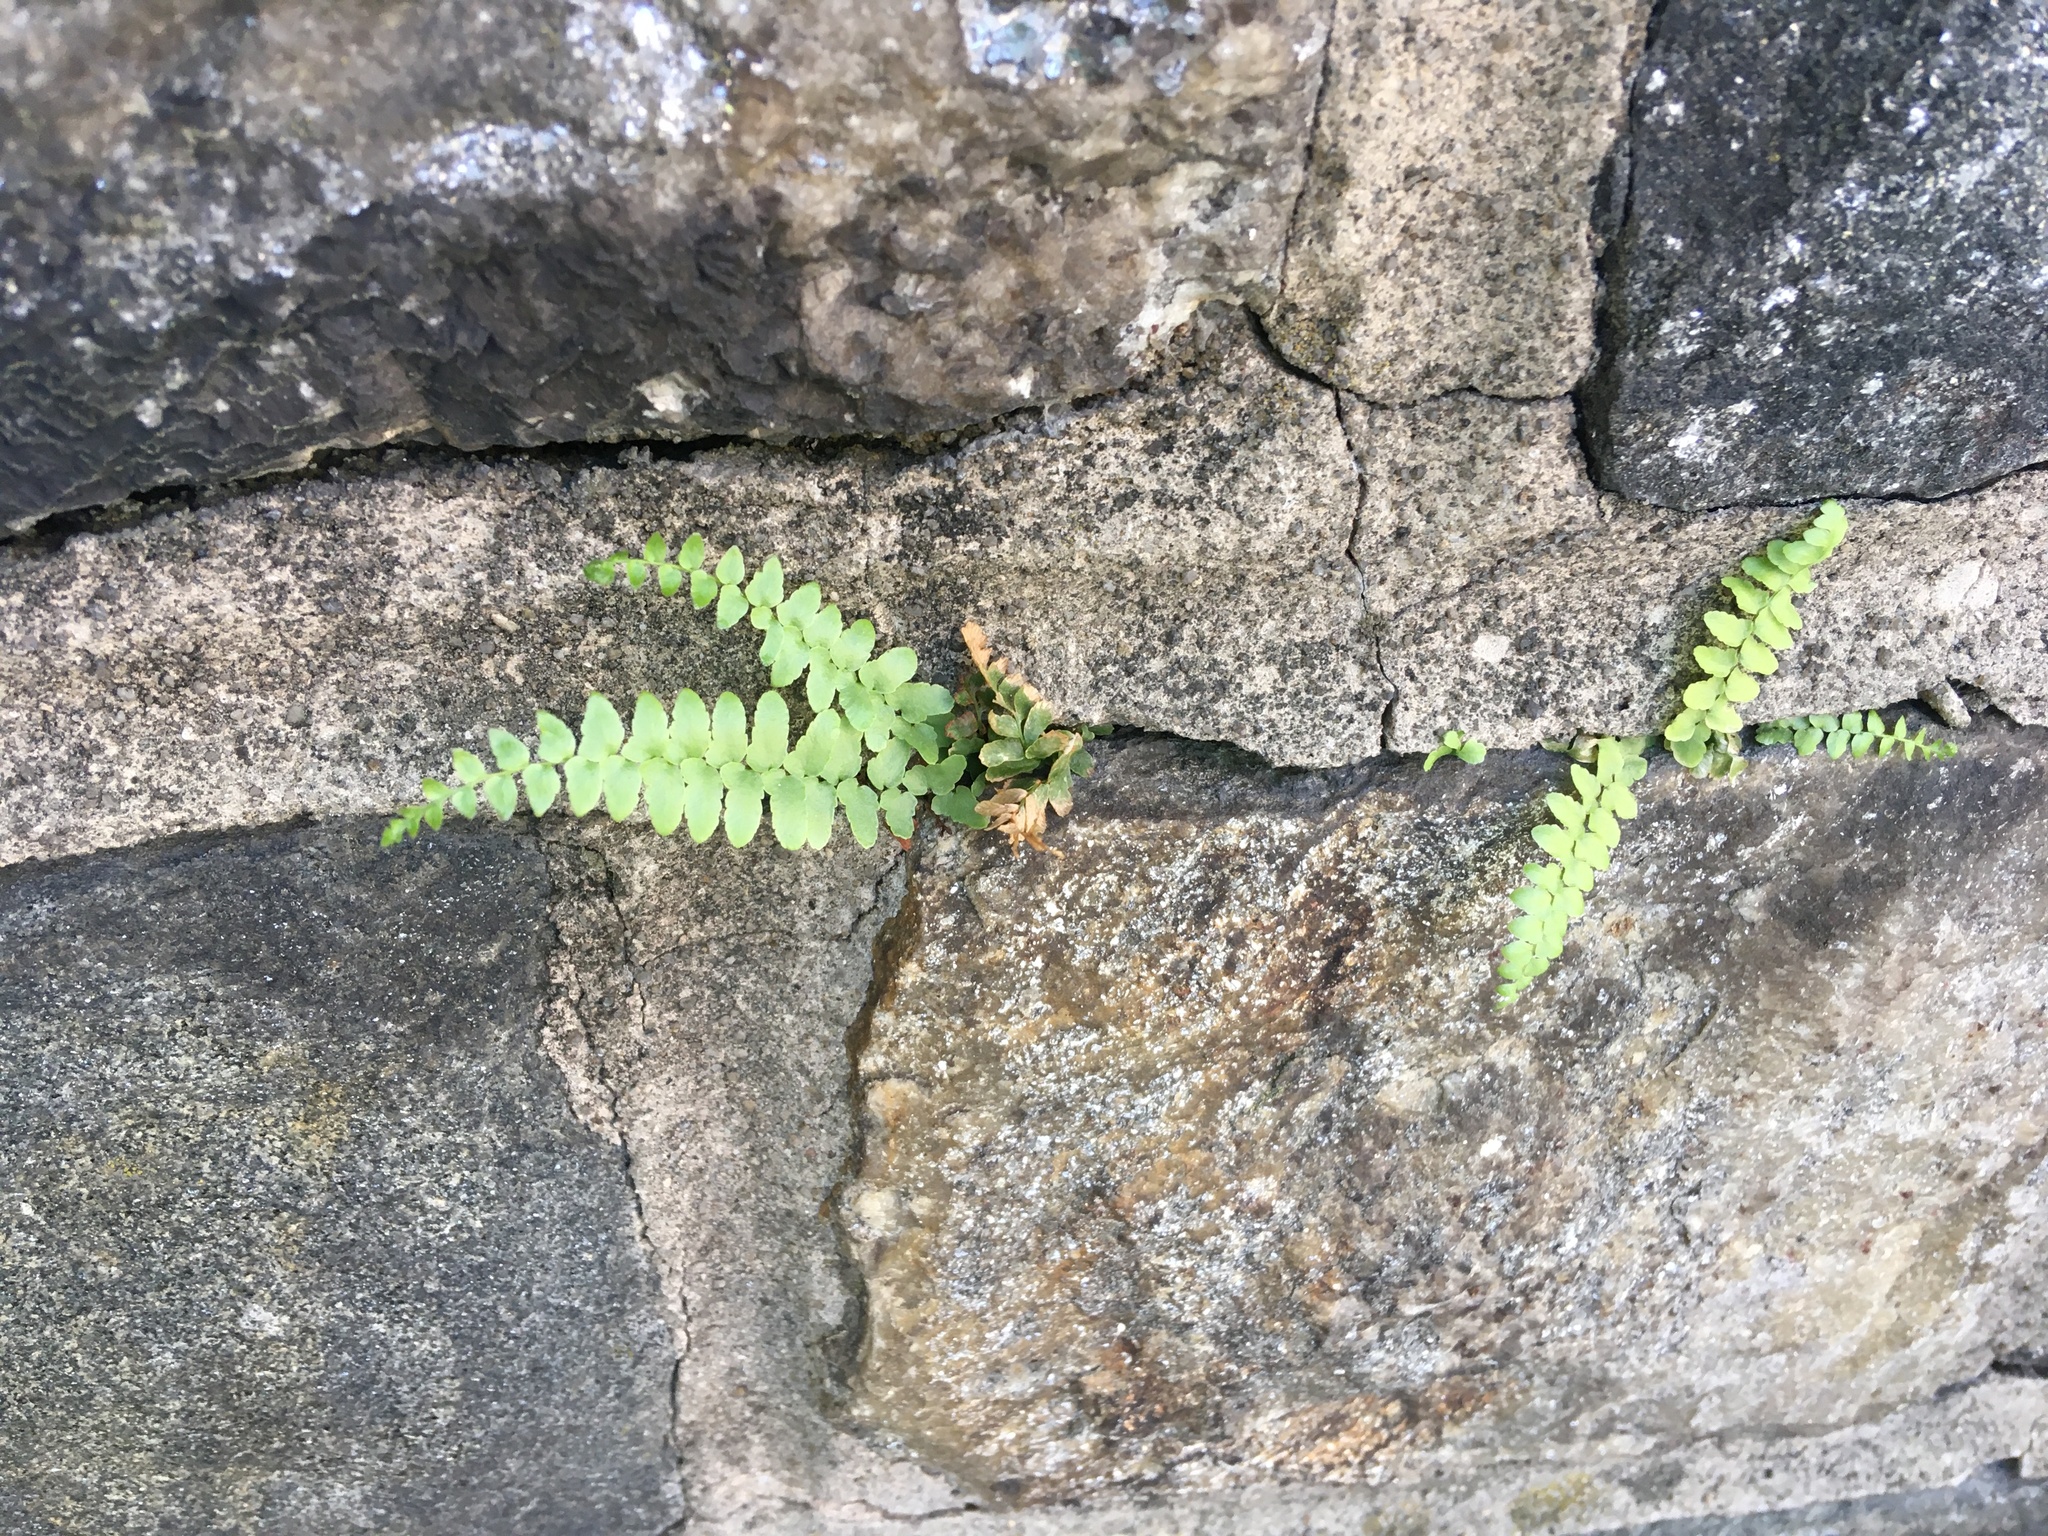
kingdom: Plantae
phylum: Tracheophyta
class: Polypodiopsida
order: Polypodiales
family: Aspleniaceae
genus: Asplenium
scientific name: Asplenium platyneuron
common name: Ebony spleenwort
